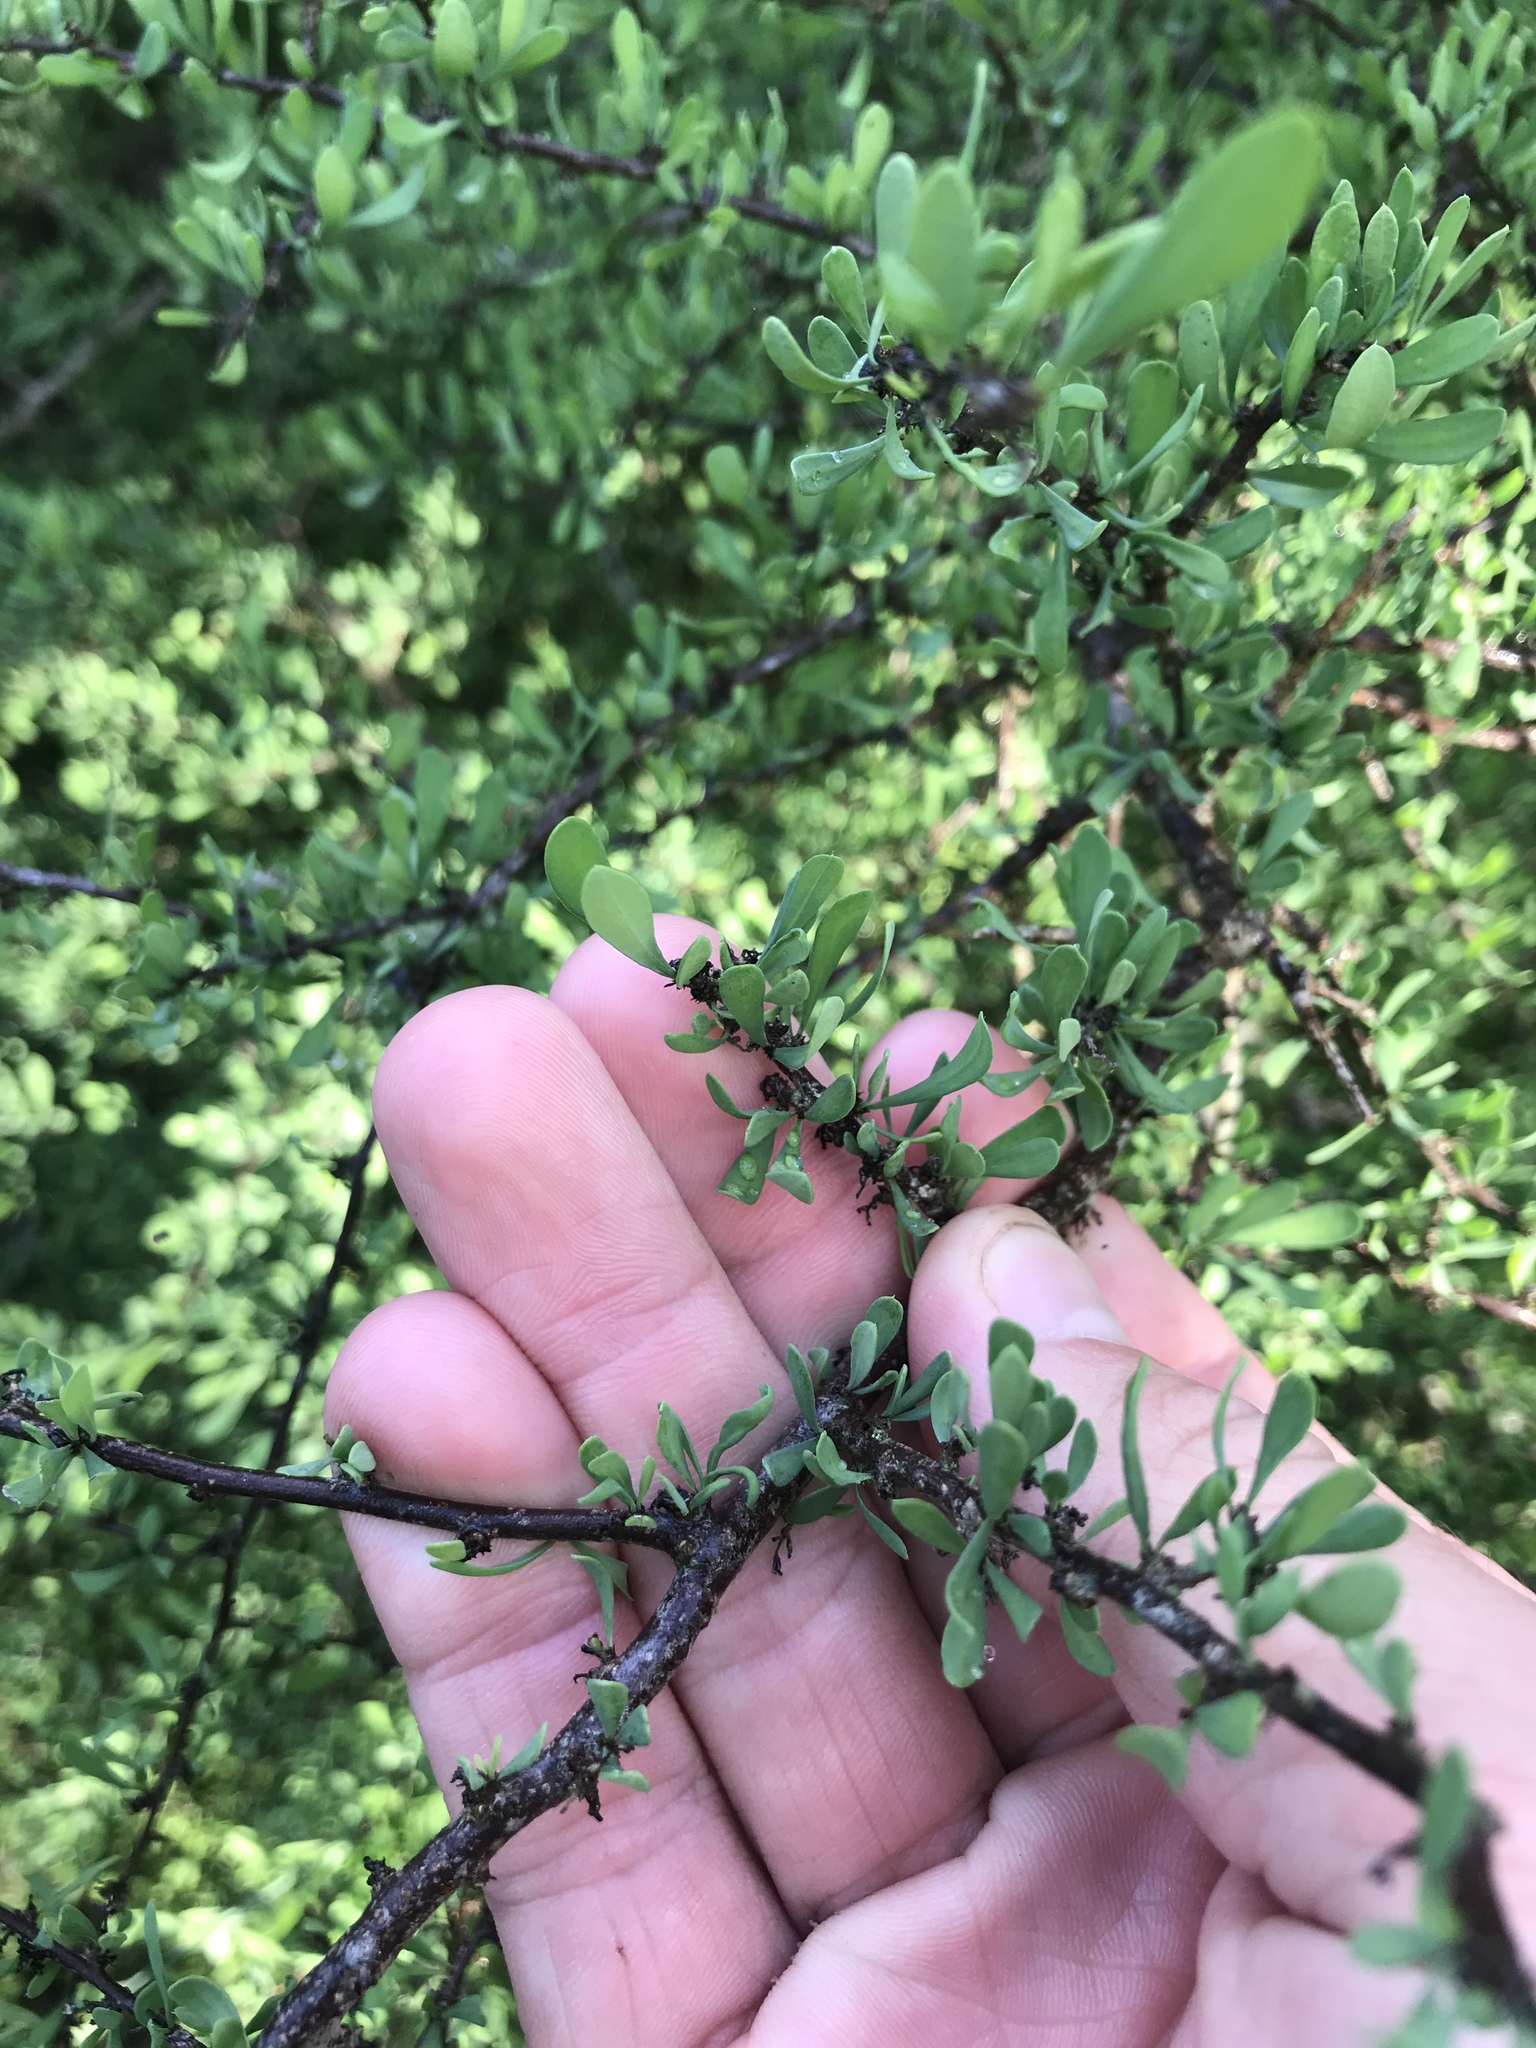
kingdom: Plantae
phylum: Tracheophyta
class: Magnoliopsida
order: Caryophyllales
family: Achatocarpaceae
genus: Phaulothamnus
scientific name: Phaulothamnus spinescens
